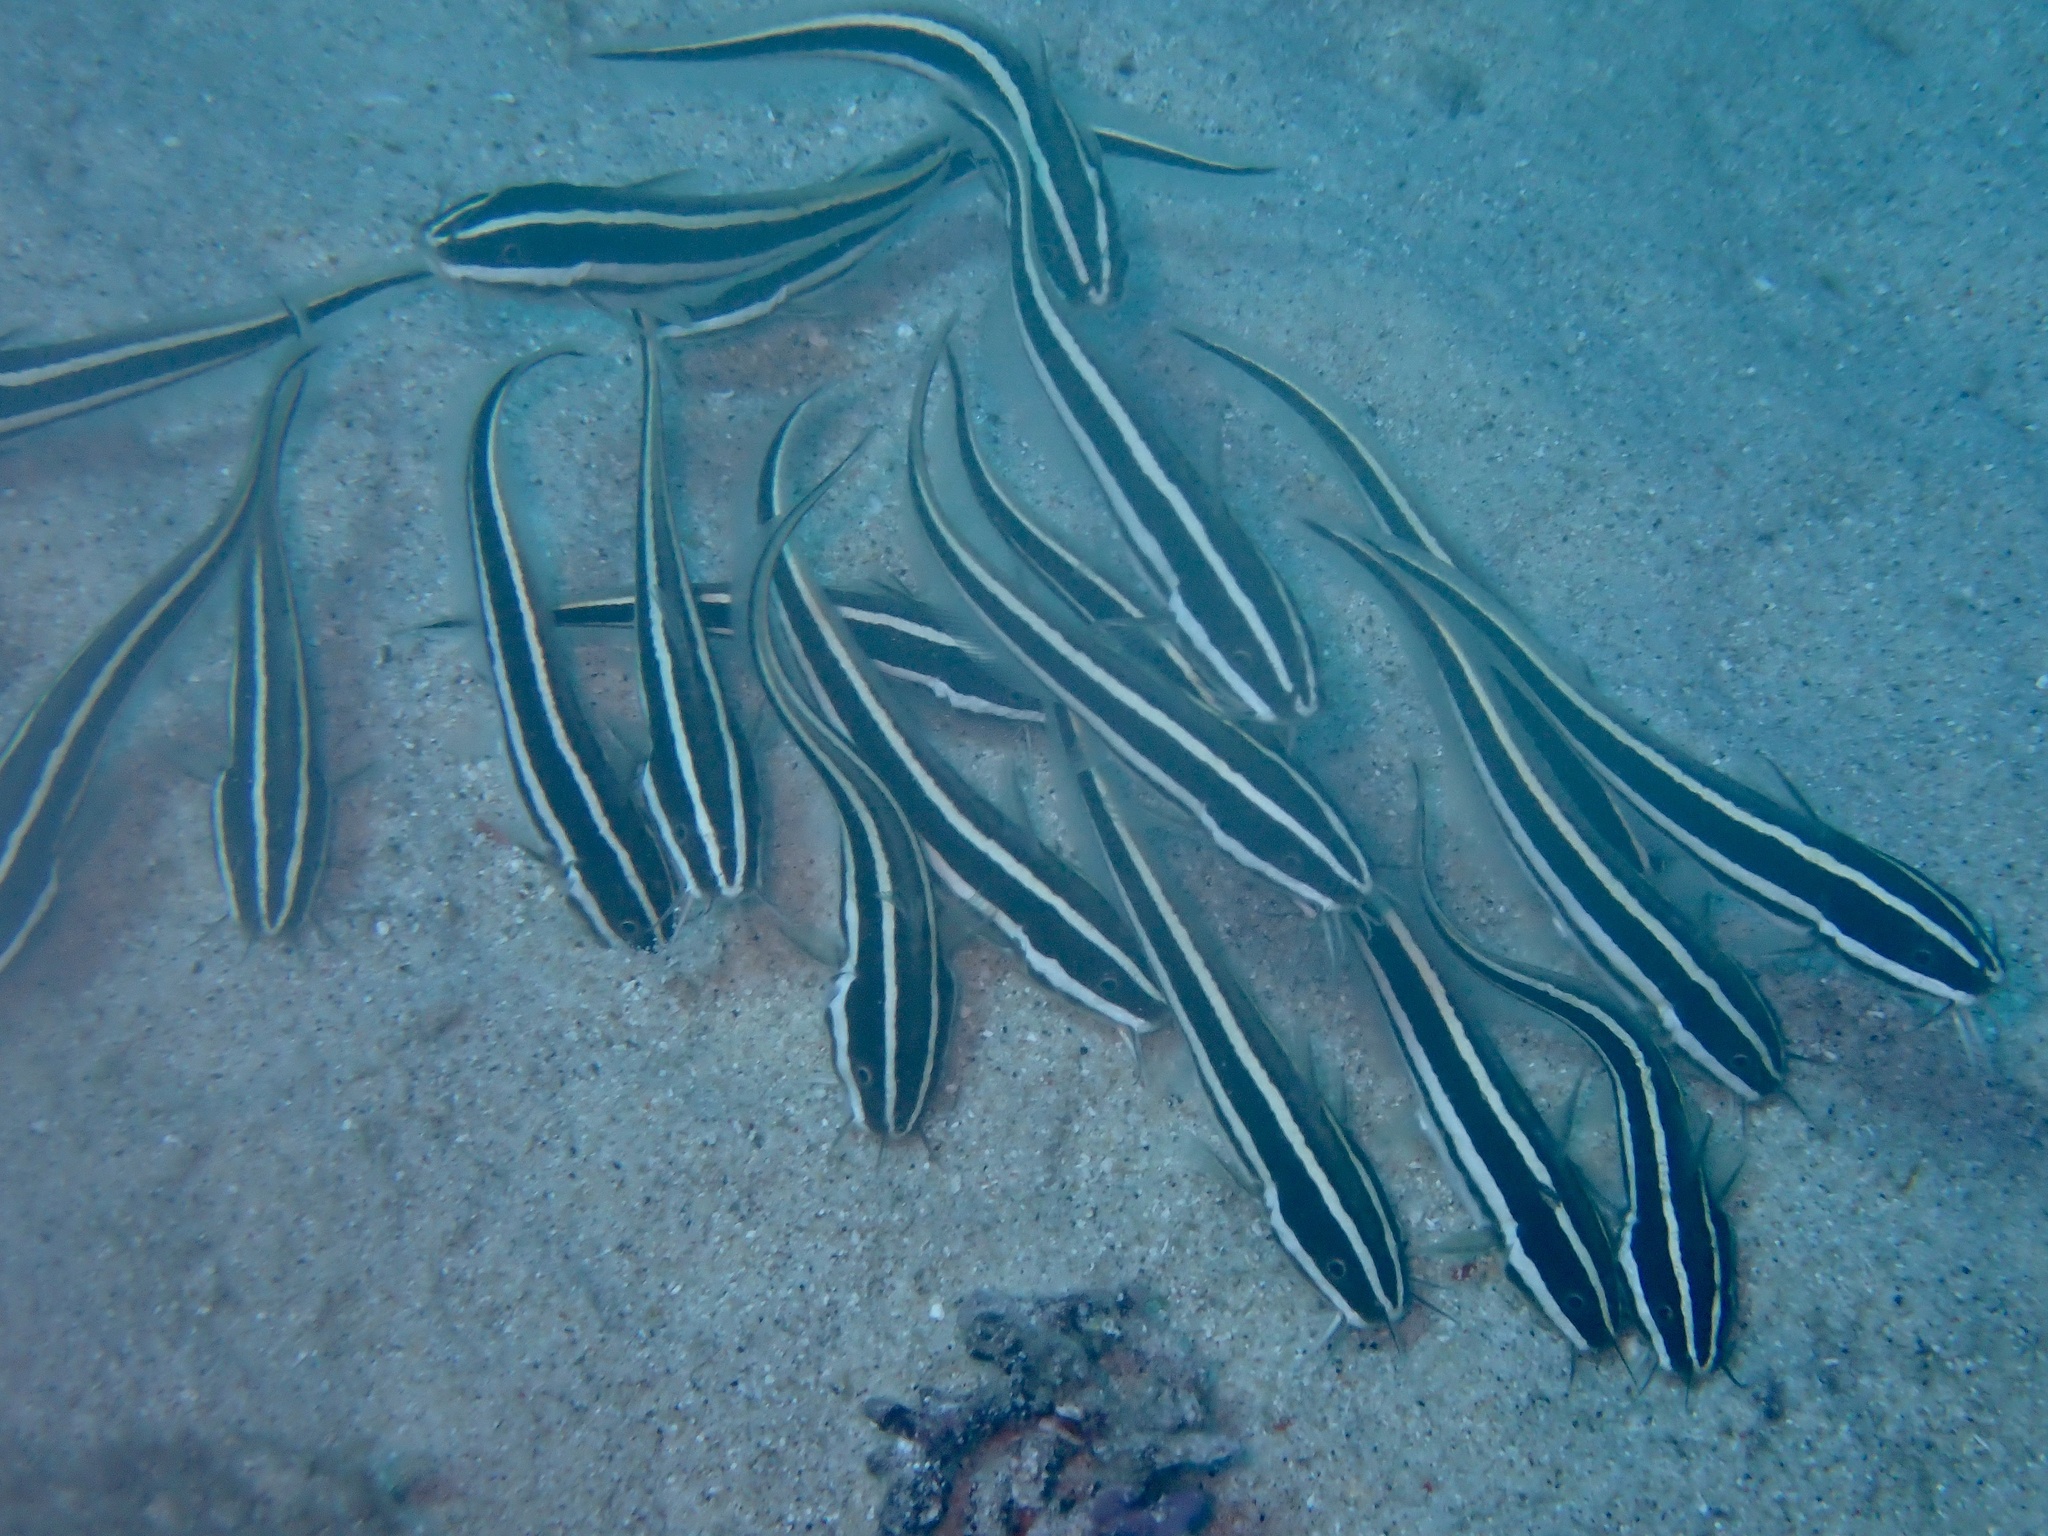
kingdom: Animalia
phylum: Chordata
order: Siluriformes
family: Plotosidae
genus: Plotosus
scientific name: Plotosus lineatus
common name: Striped eel catfish
